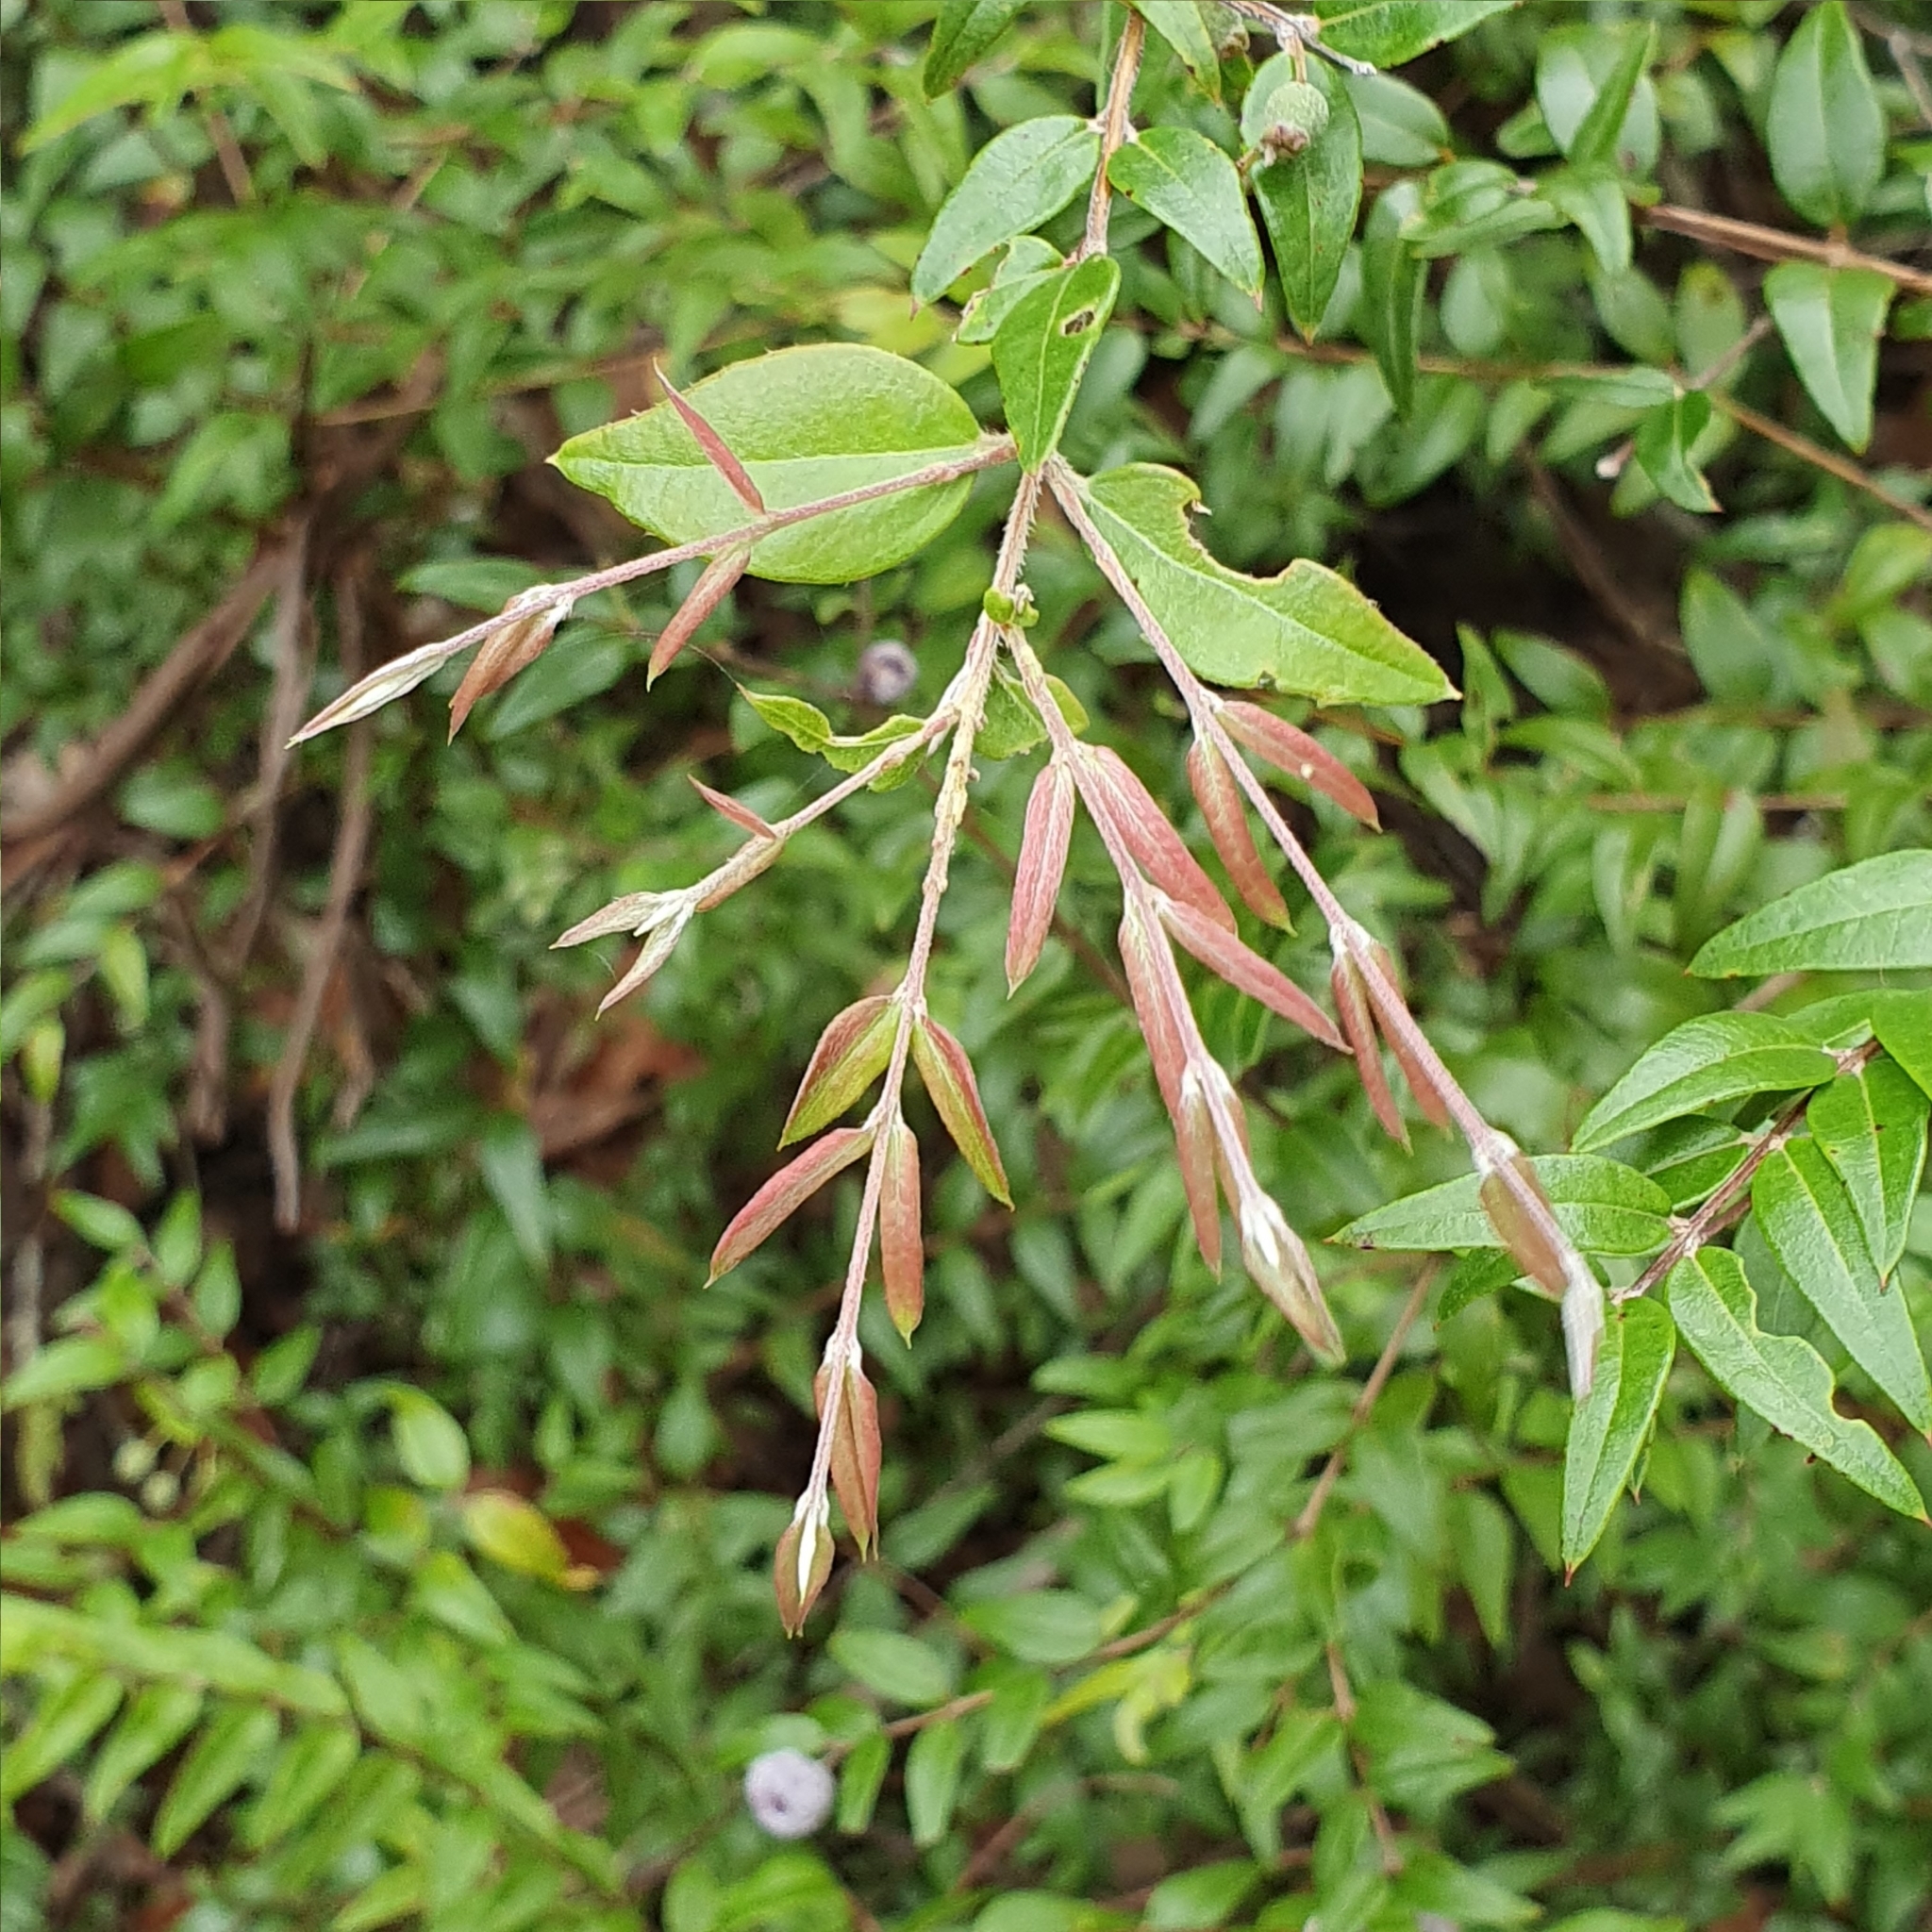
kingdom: Plantae
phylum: Tracheophyta
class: Magnoliopsida
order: Myrtales
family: Myrtaceae
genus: Austromyrtus
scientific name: Austromyrtus dulcis
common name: Migden-berry
